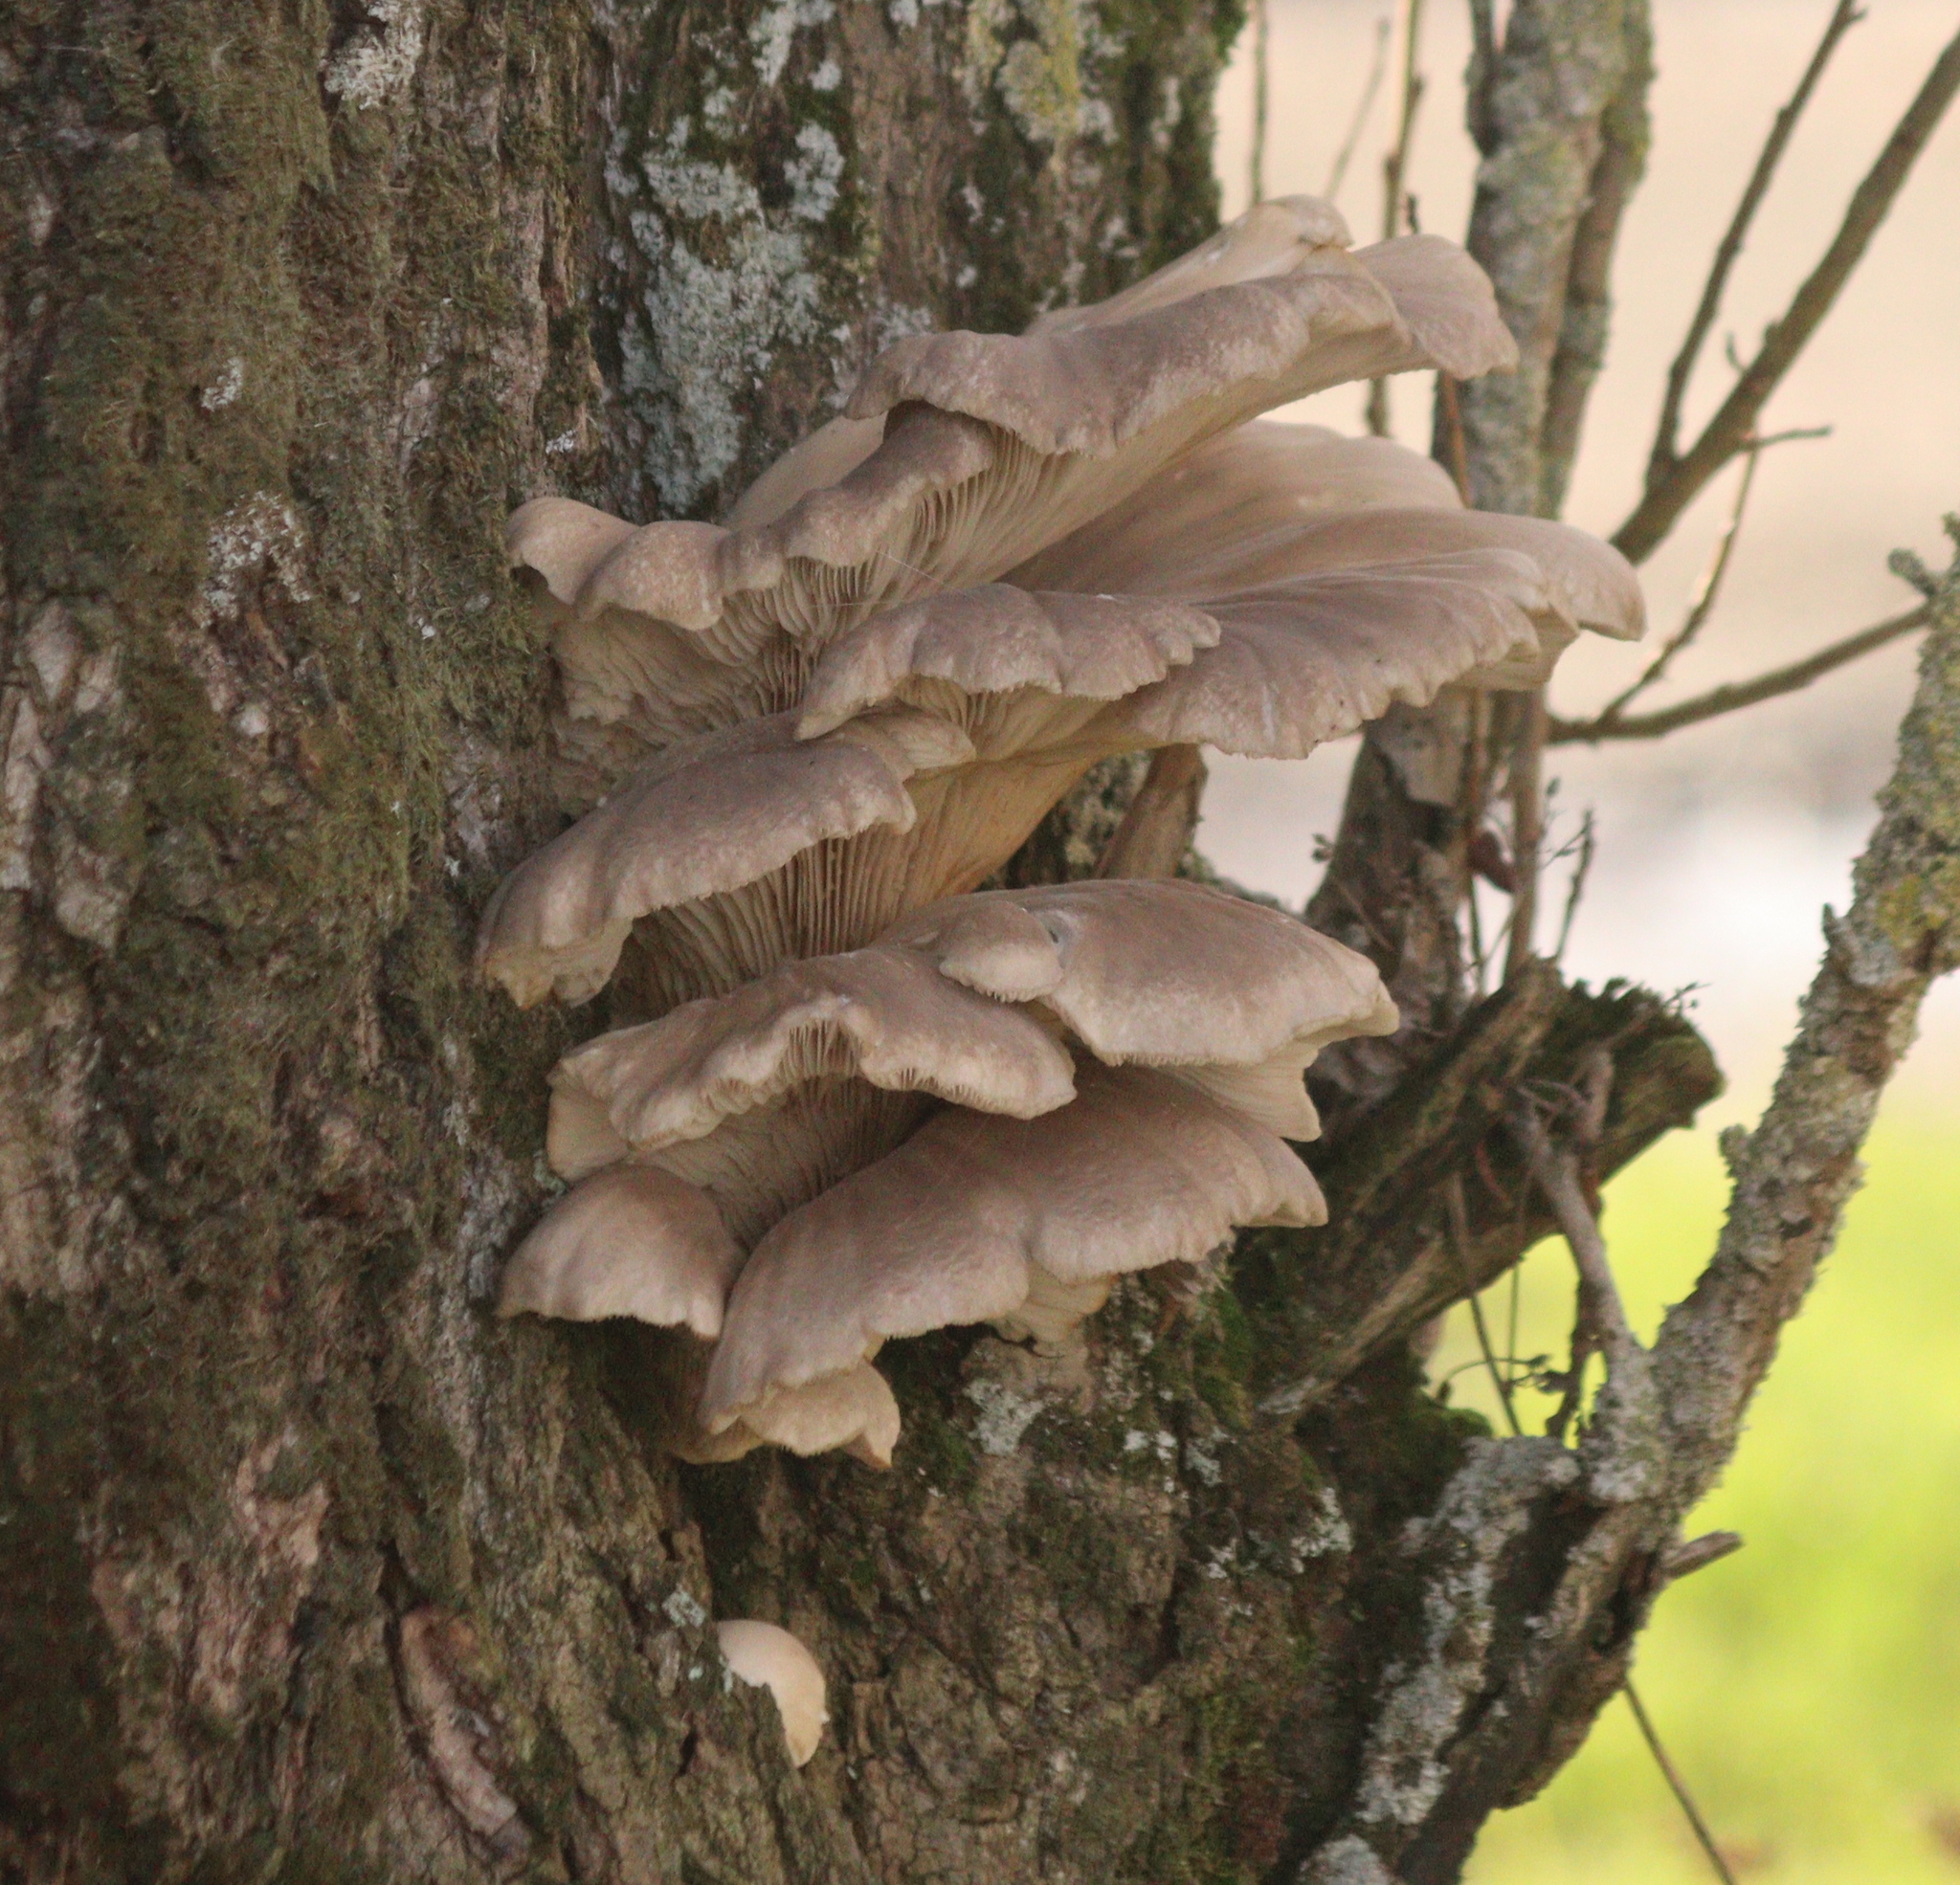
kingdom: Fungi
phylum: Basidiomycota
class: Agaricomycetes
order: Agaricales
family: Pleurotaceae
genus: Pleurotus
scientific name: Pleurotus ostreatus
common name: Oyster mushroom
